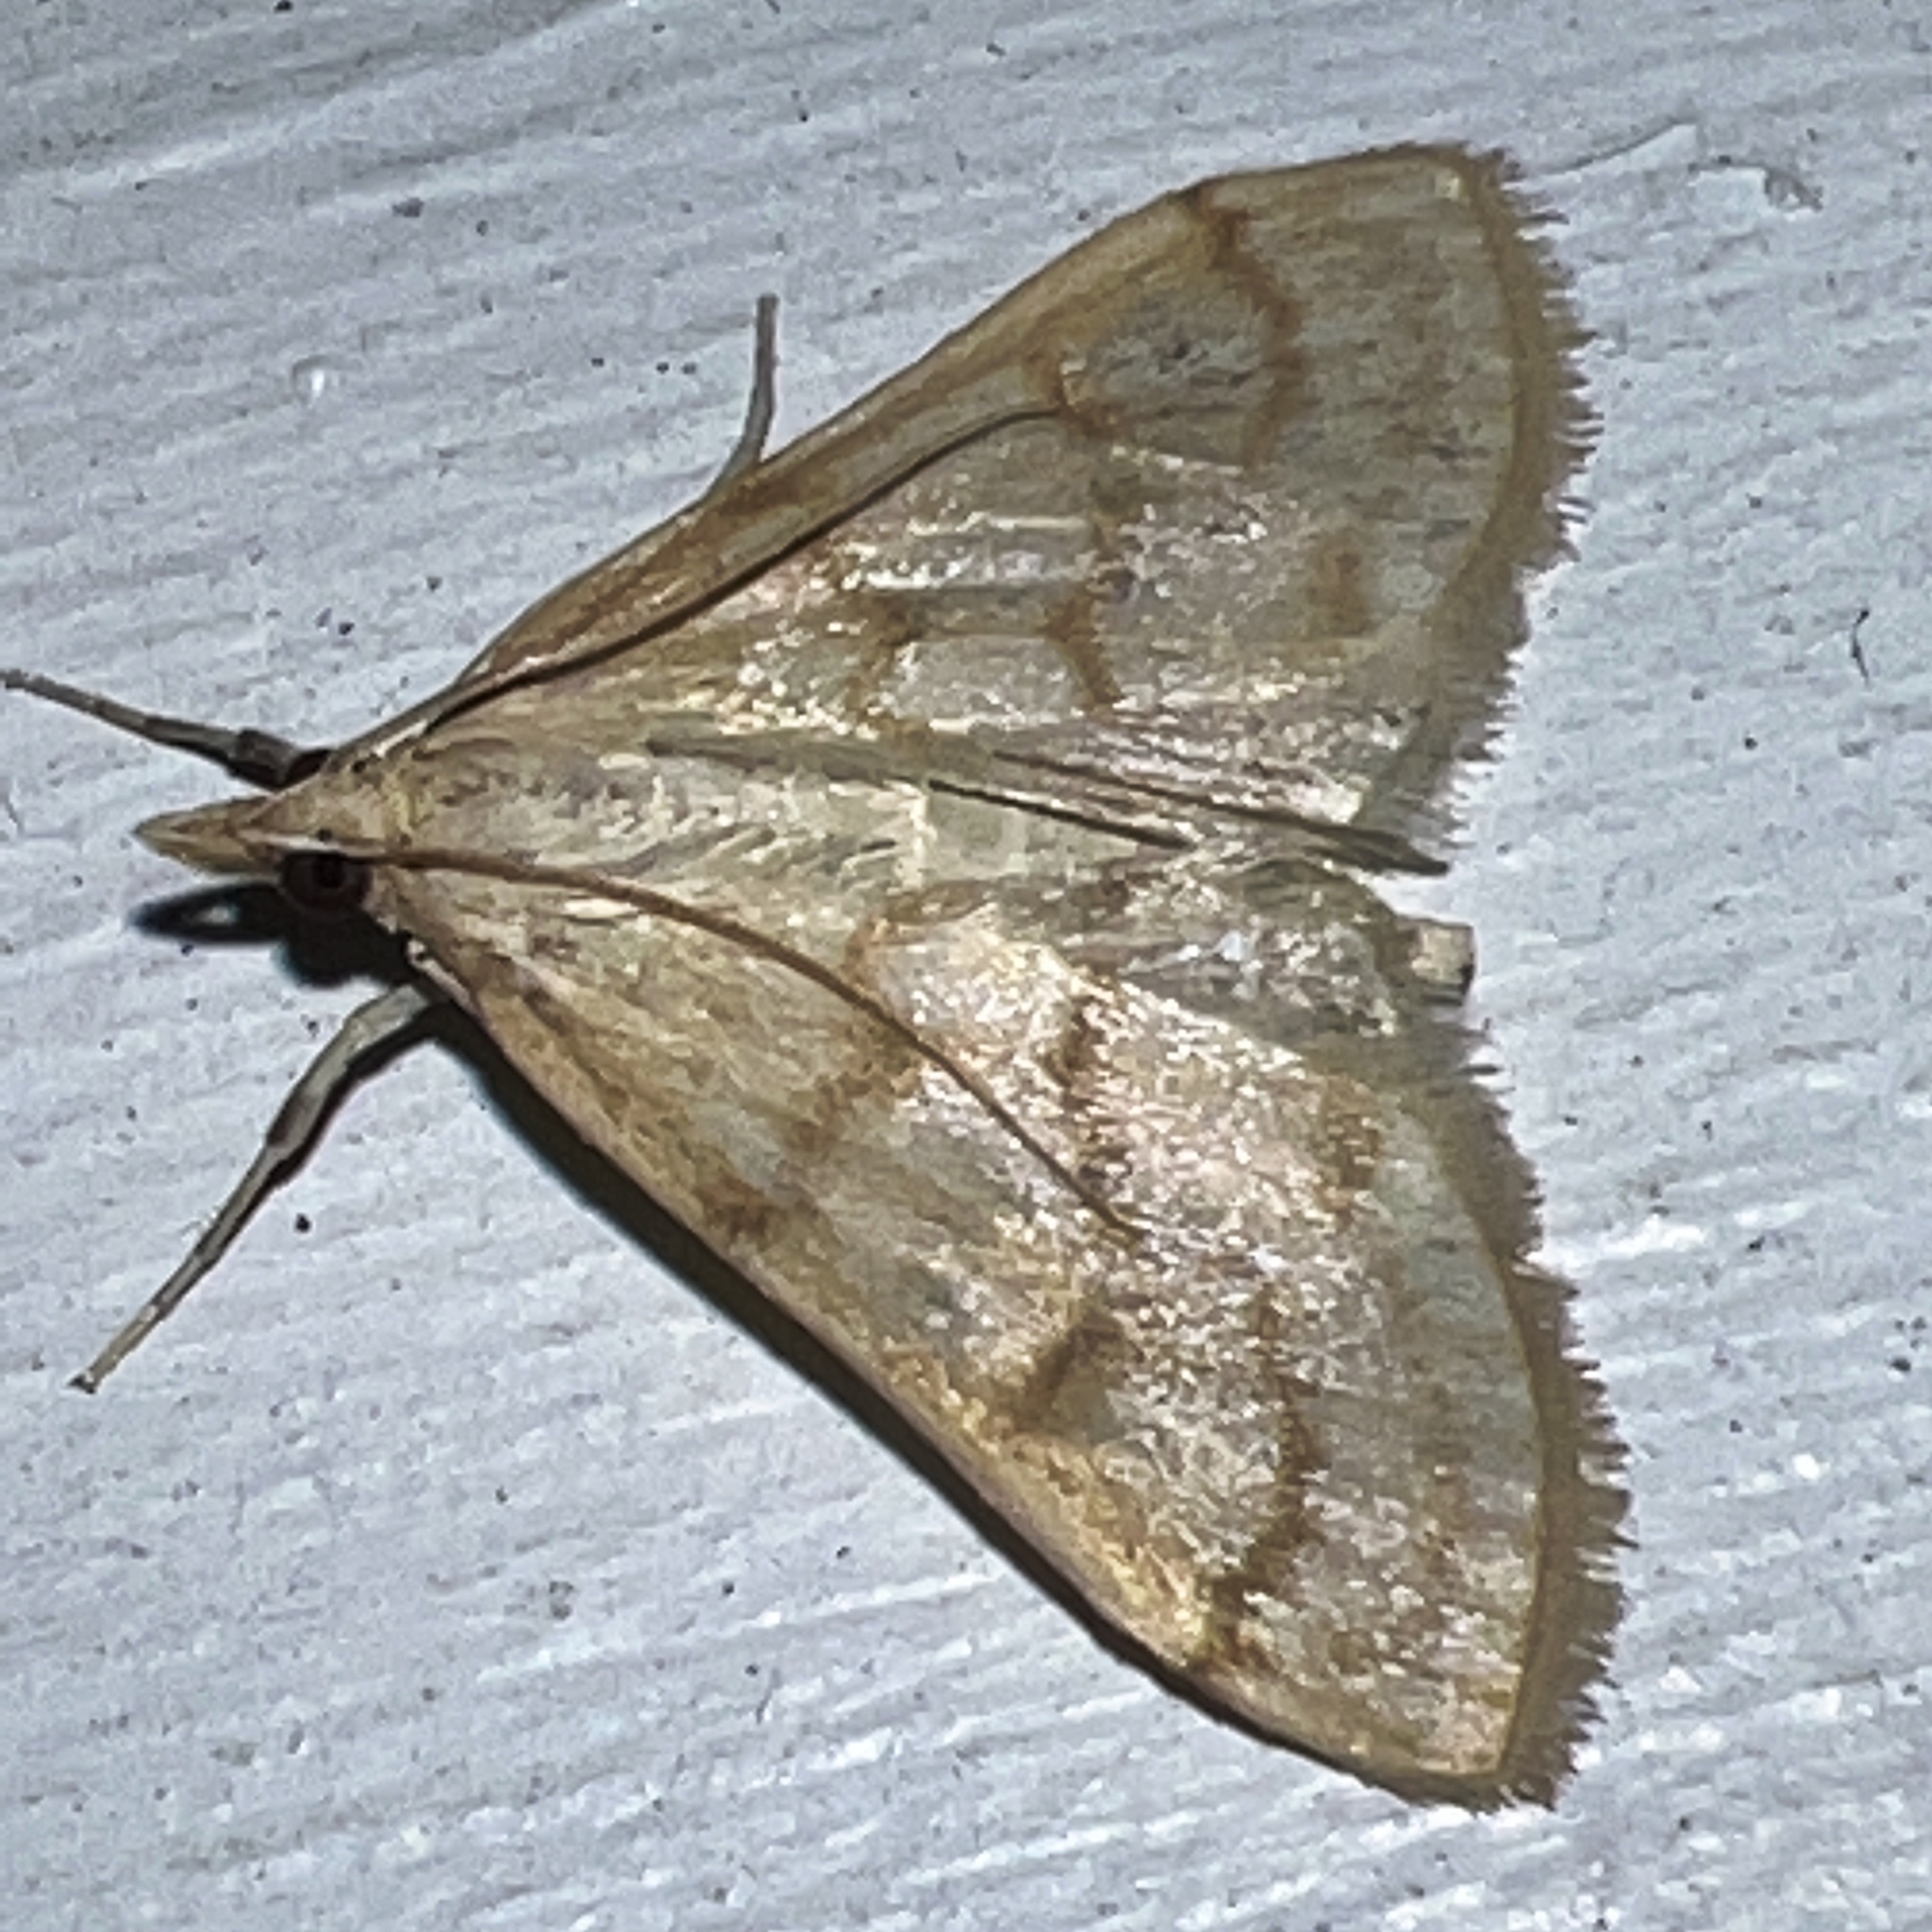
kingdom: Animalia
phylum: Arthropoda
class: Insecta
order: Lepidoptera
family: Crambidae
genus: Paracorsia
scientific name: Paracorsia repandalis
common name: Mullein moth
